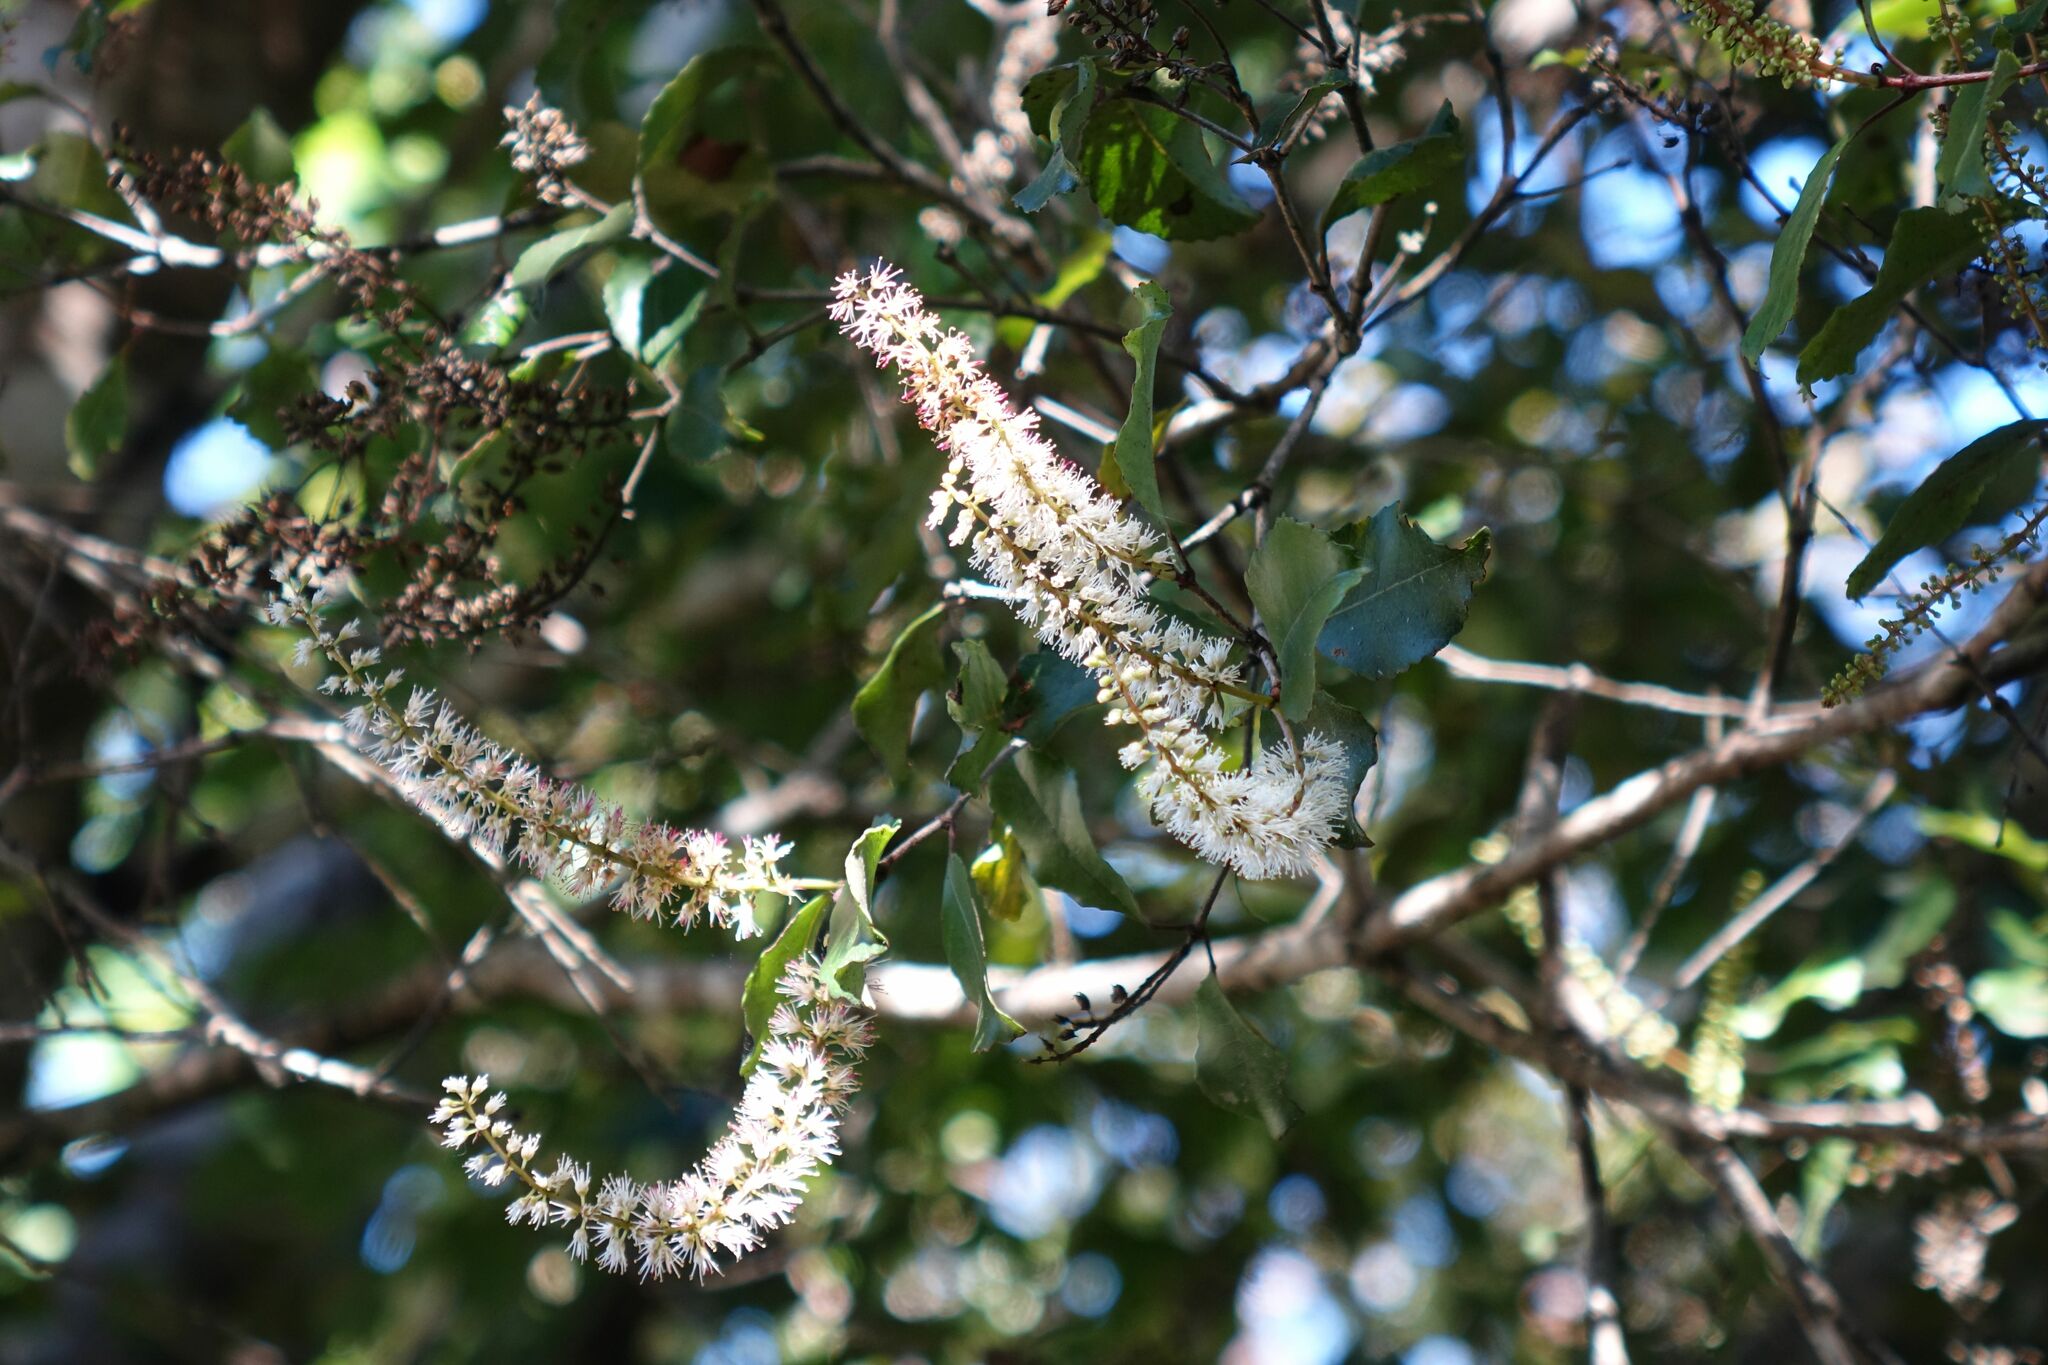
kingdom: Plantae
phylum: Tracheophyta
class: Magnoliopsida
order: Oxalidales
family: Cunoniaceae
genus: Pterophylla
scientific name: Pterophylla racemosa
